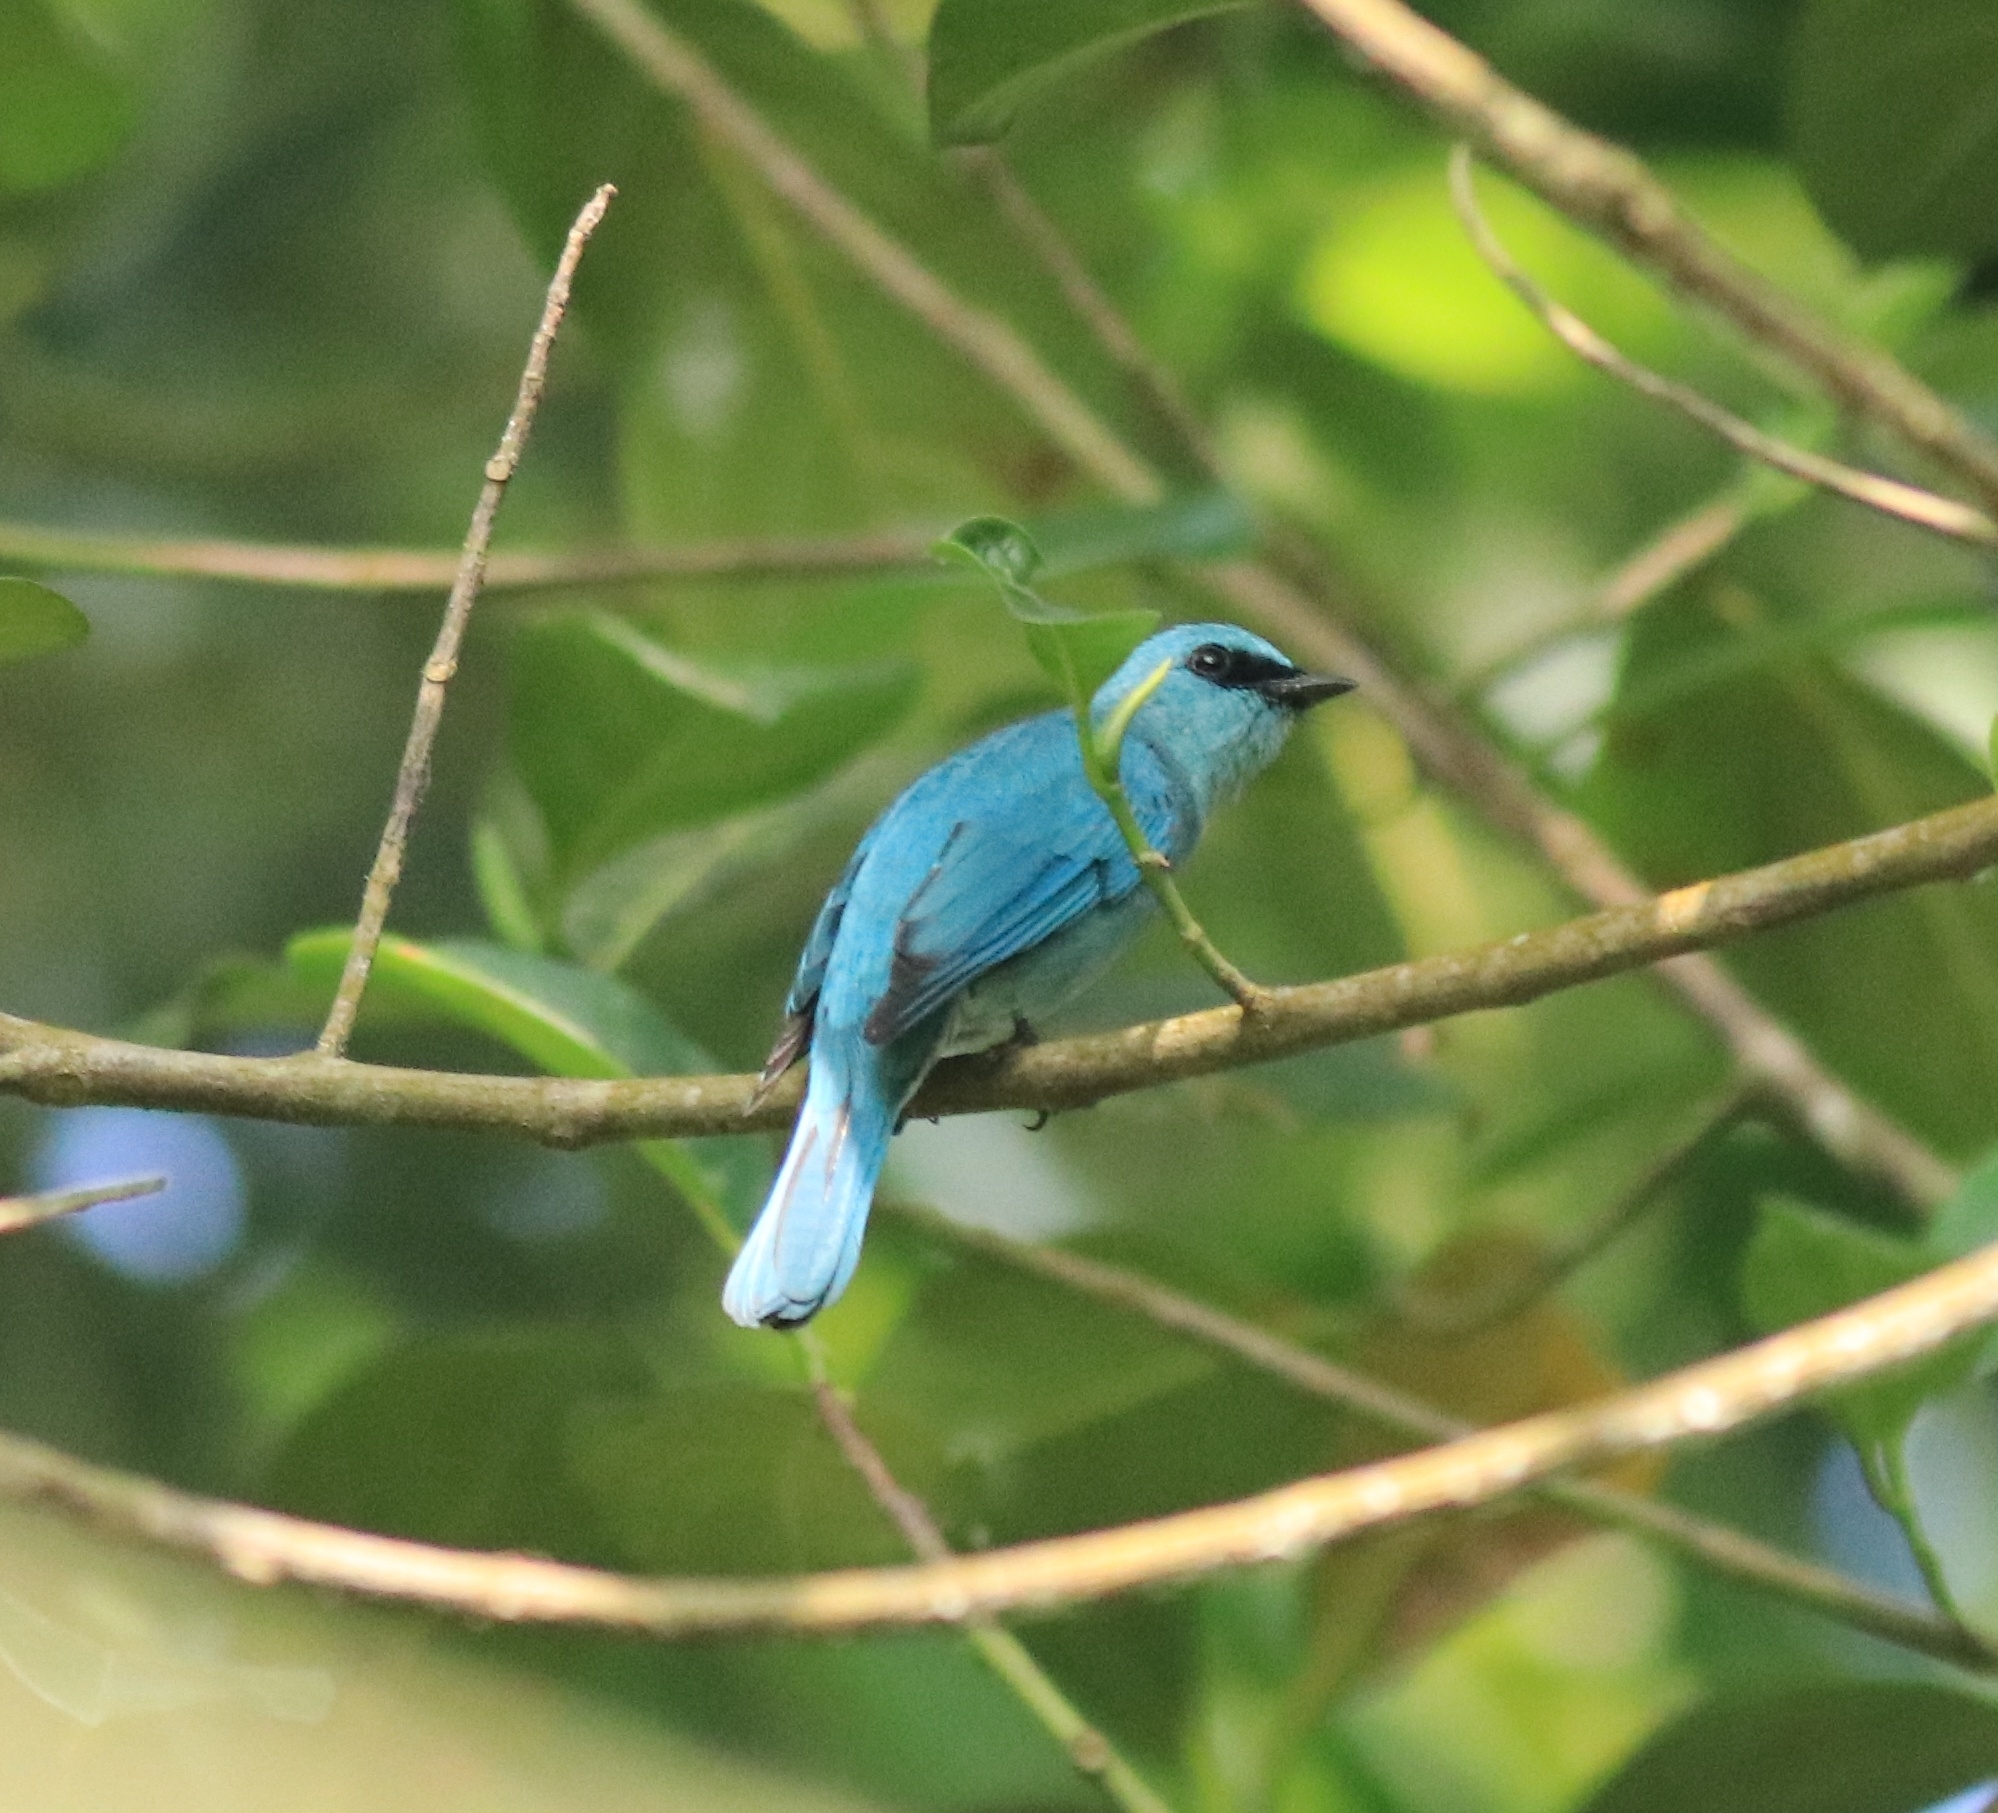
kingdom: Animalia
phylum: Chordata
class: Aves
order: Passeriformes
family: Muscicapidae
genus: Eumyias
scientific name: Eumyias thalassinus
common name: Verditer flycatcher
